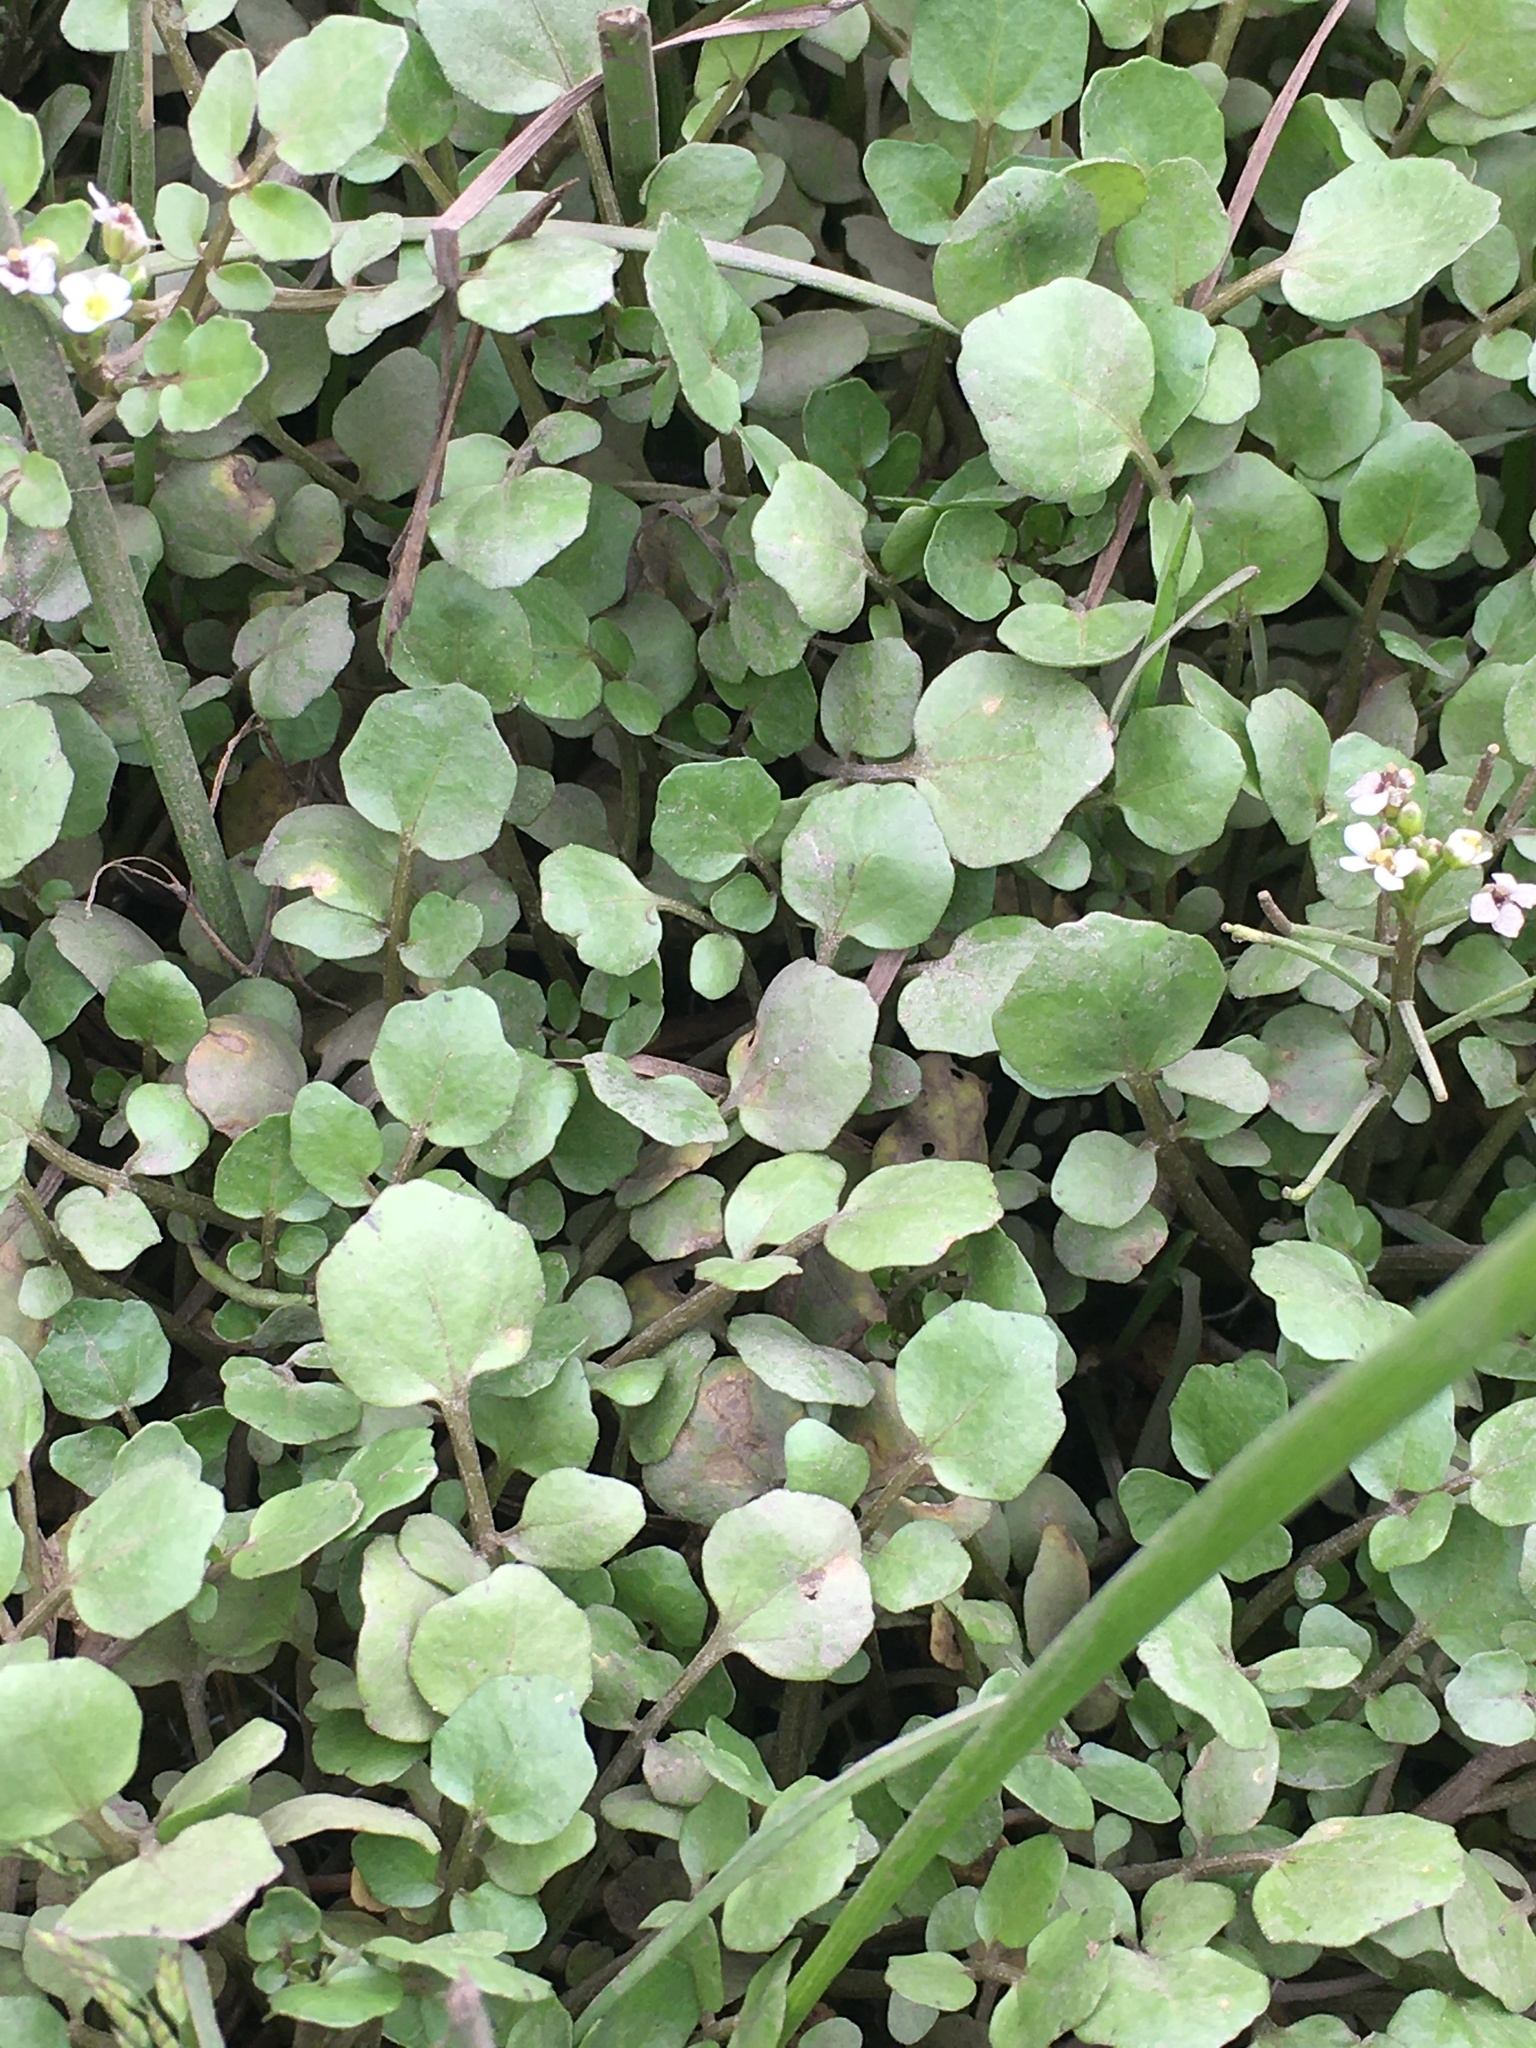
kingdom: Plantae
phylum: Tracheophyta
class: Magnoliopsida
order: Brassicales
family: Brassicaceae
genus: Nasturtium
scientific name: Nasturtium officinale
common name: Watercress
